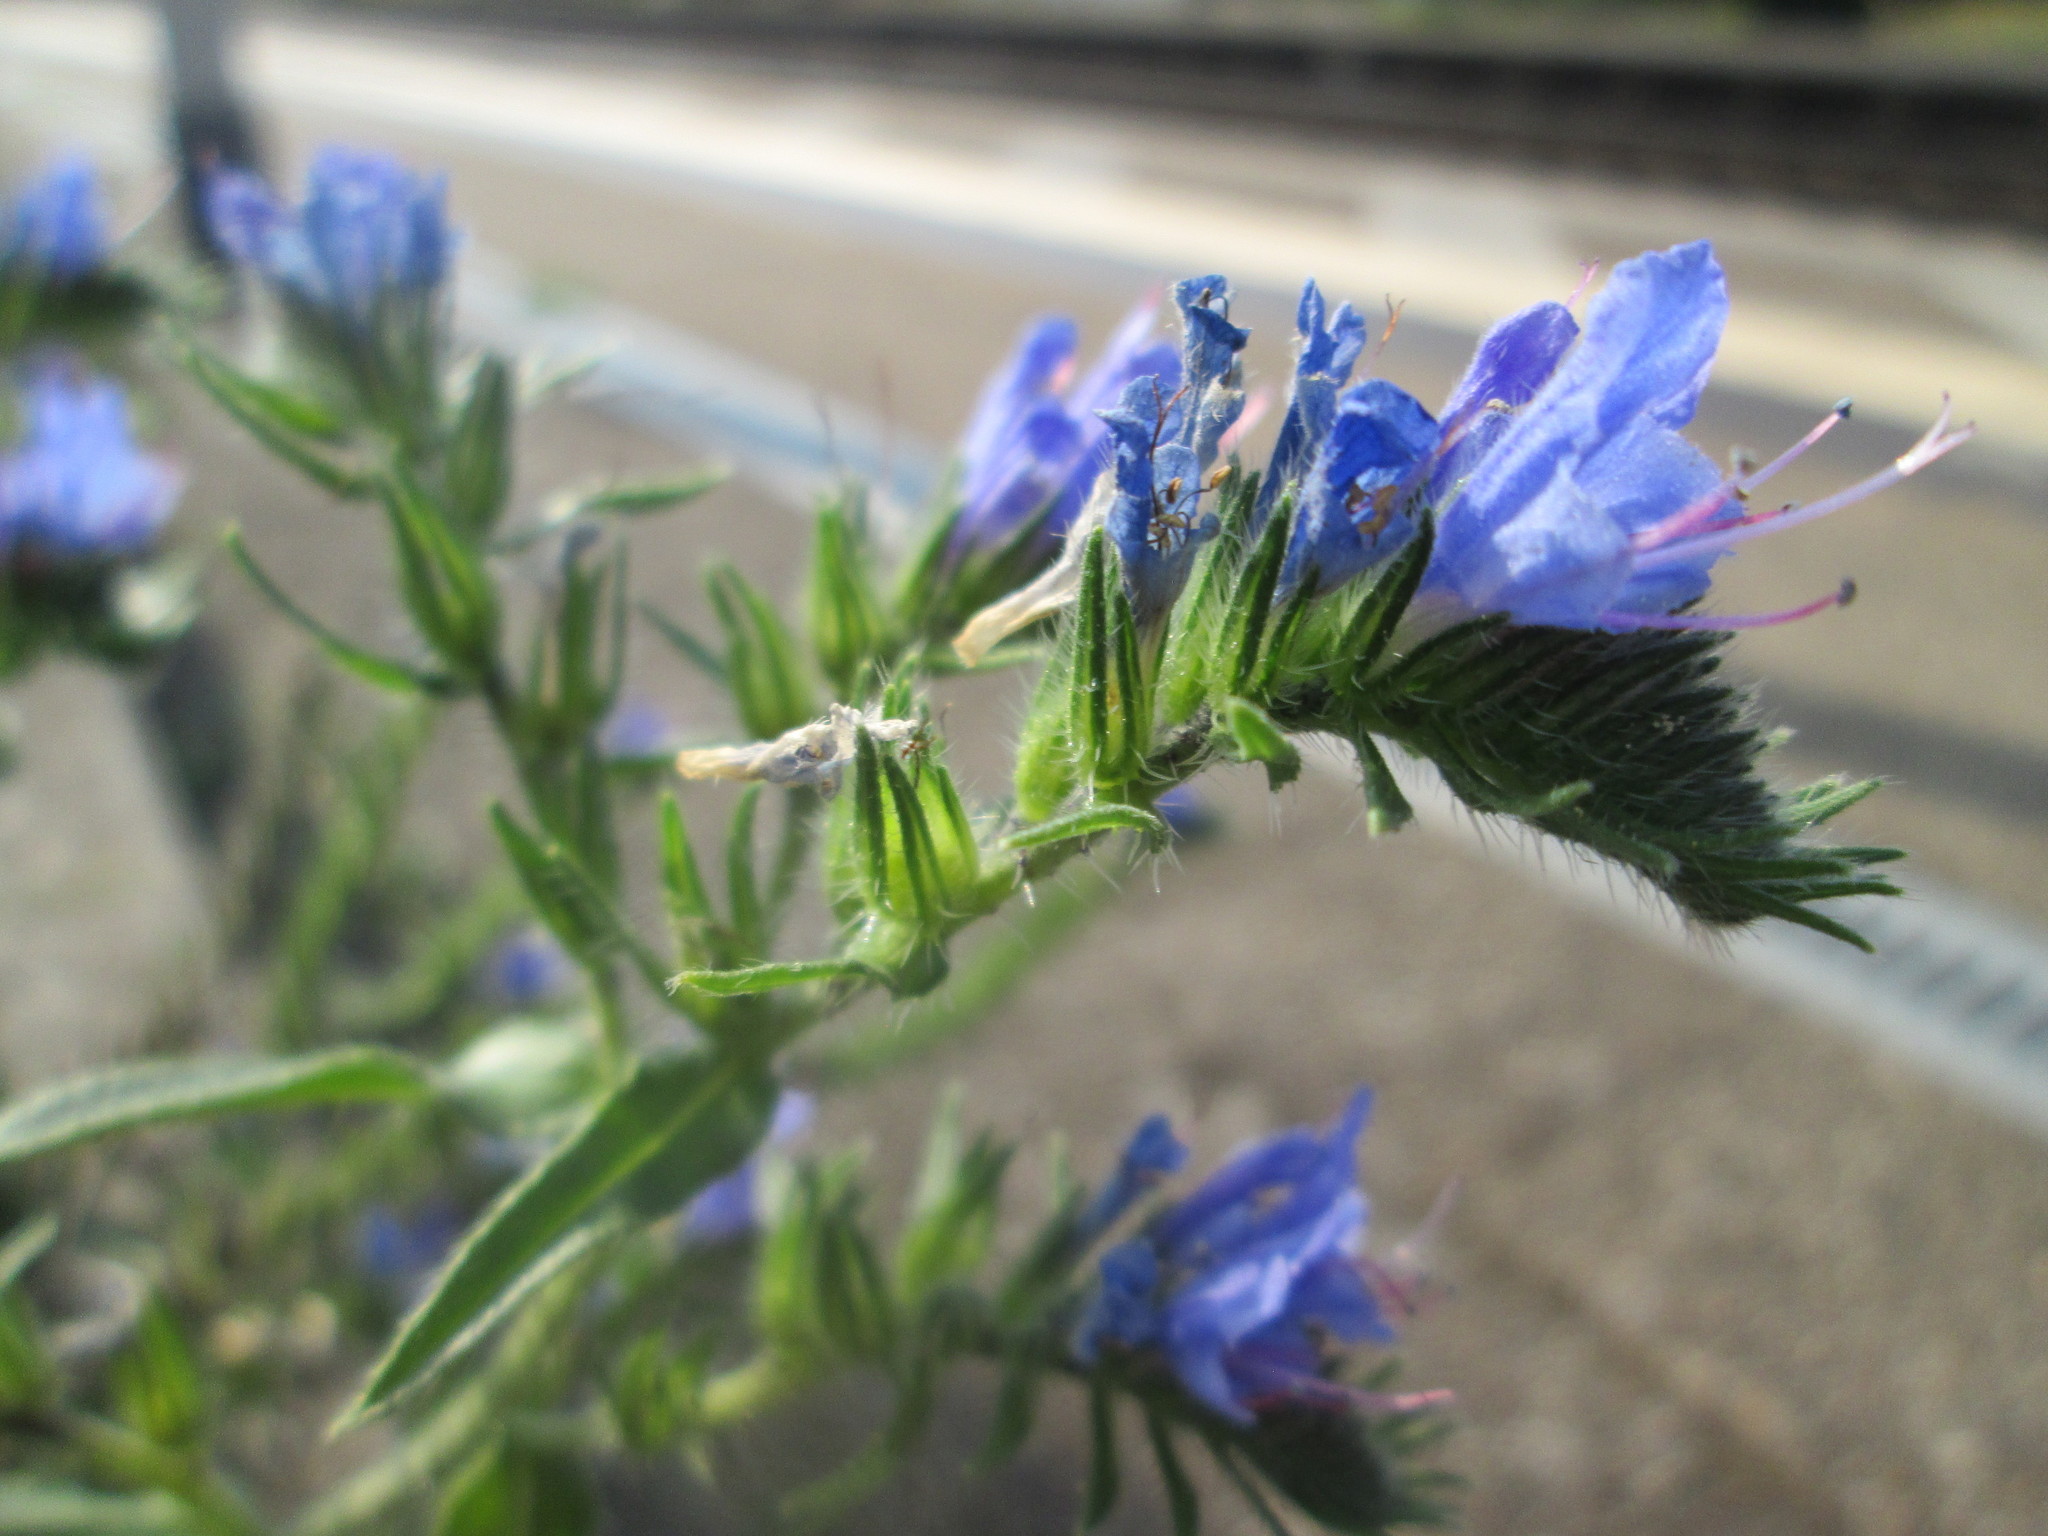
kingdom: Plantae
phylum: Tracheophyta
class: Magnoliopsida
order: Boraginales
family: Boraginaceae
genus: Echium
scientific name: Echium vulgare
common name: Common viper's bugloss
